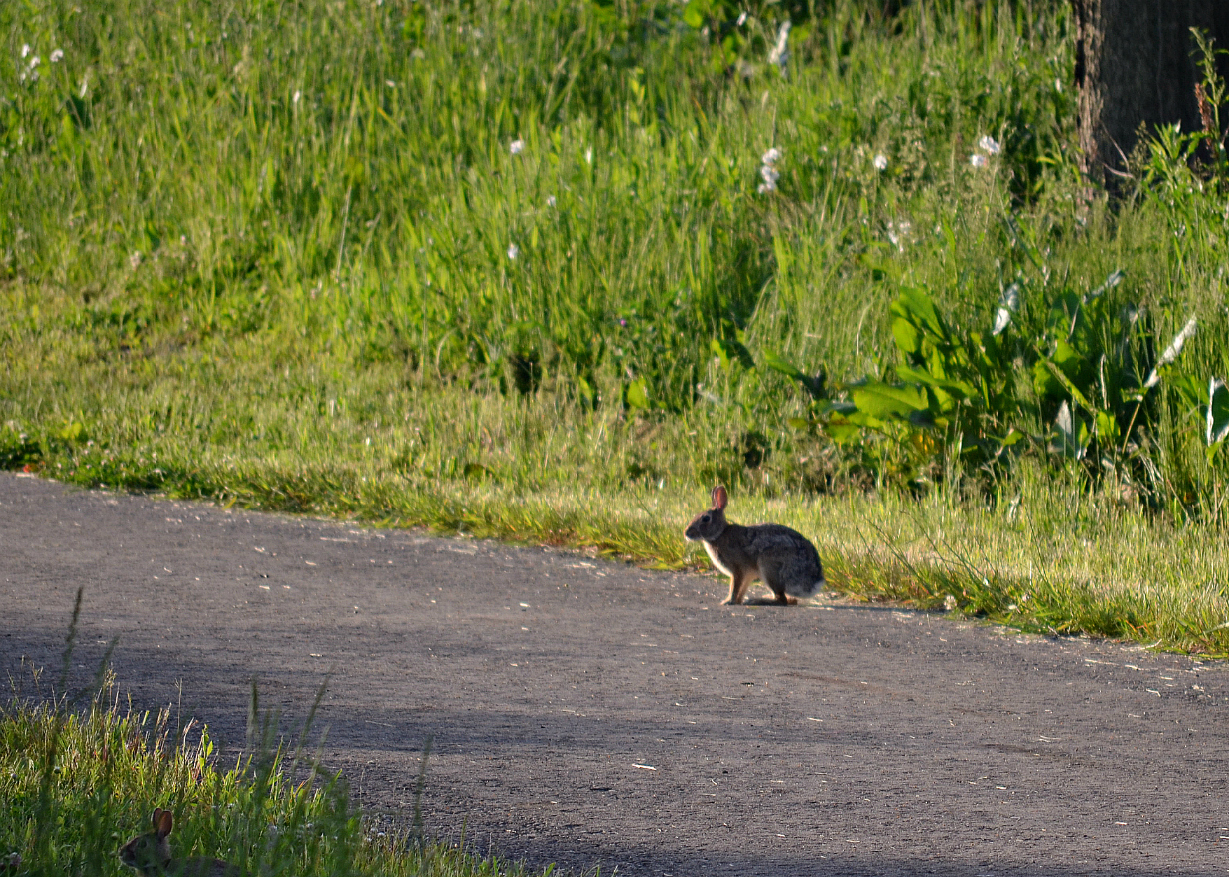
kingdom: Animalia
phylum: Chordata
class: Mammalia
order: Lagomorpha
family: Leporidae
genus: Sylvilagus
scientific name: Sylvilagus floridanus
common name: Eastern cottontail
